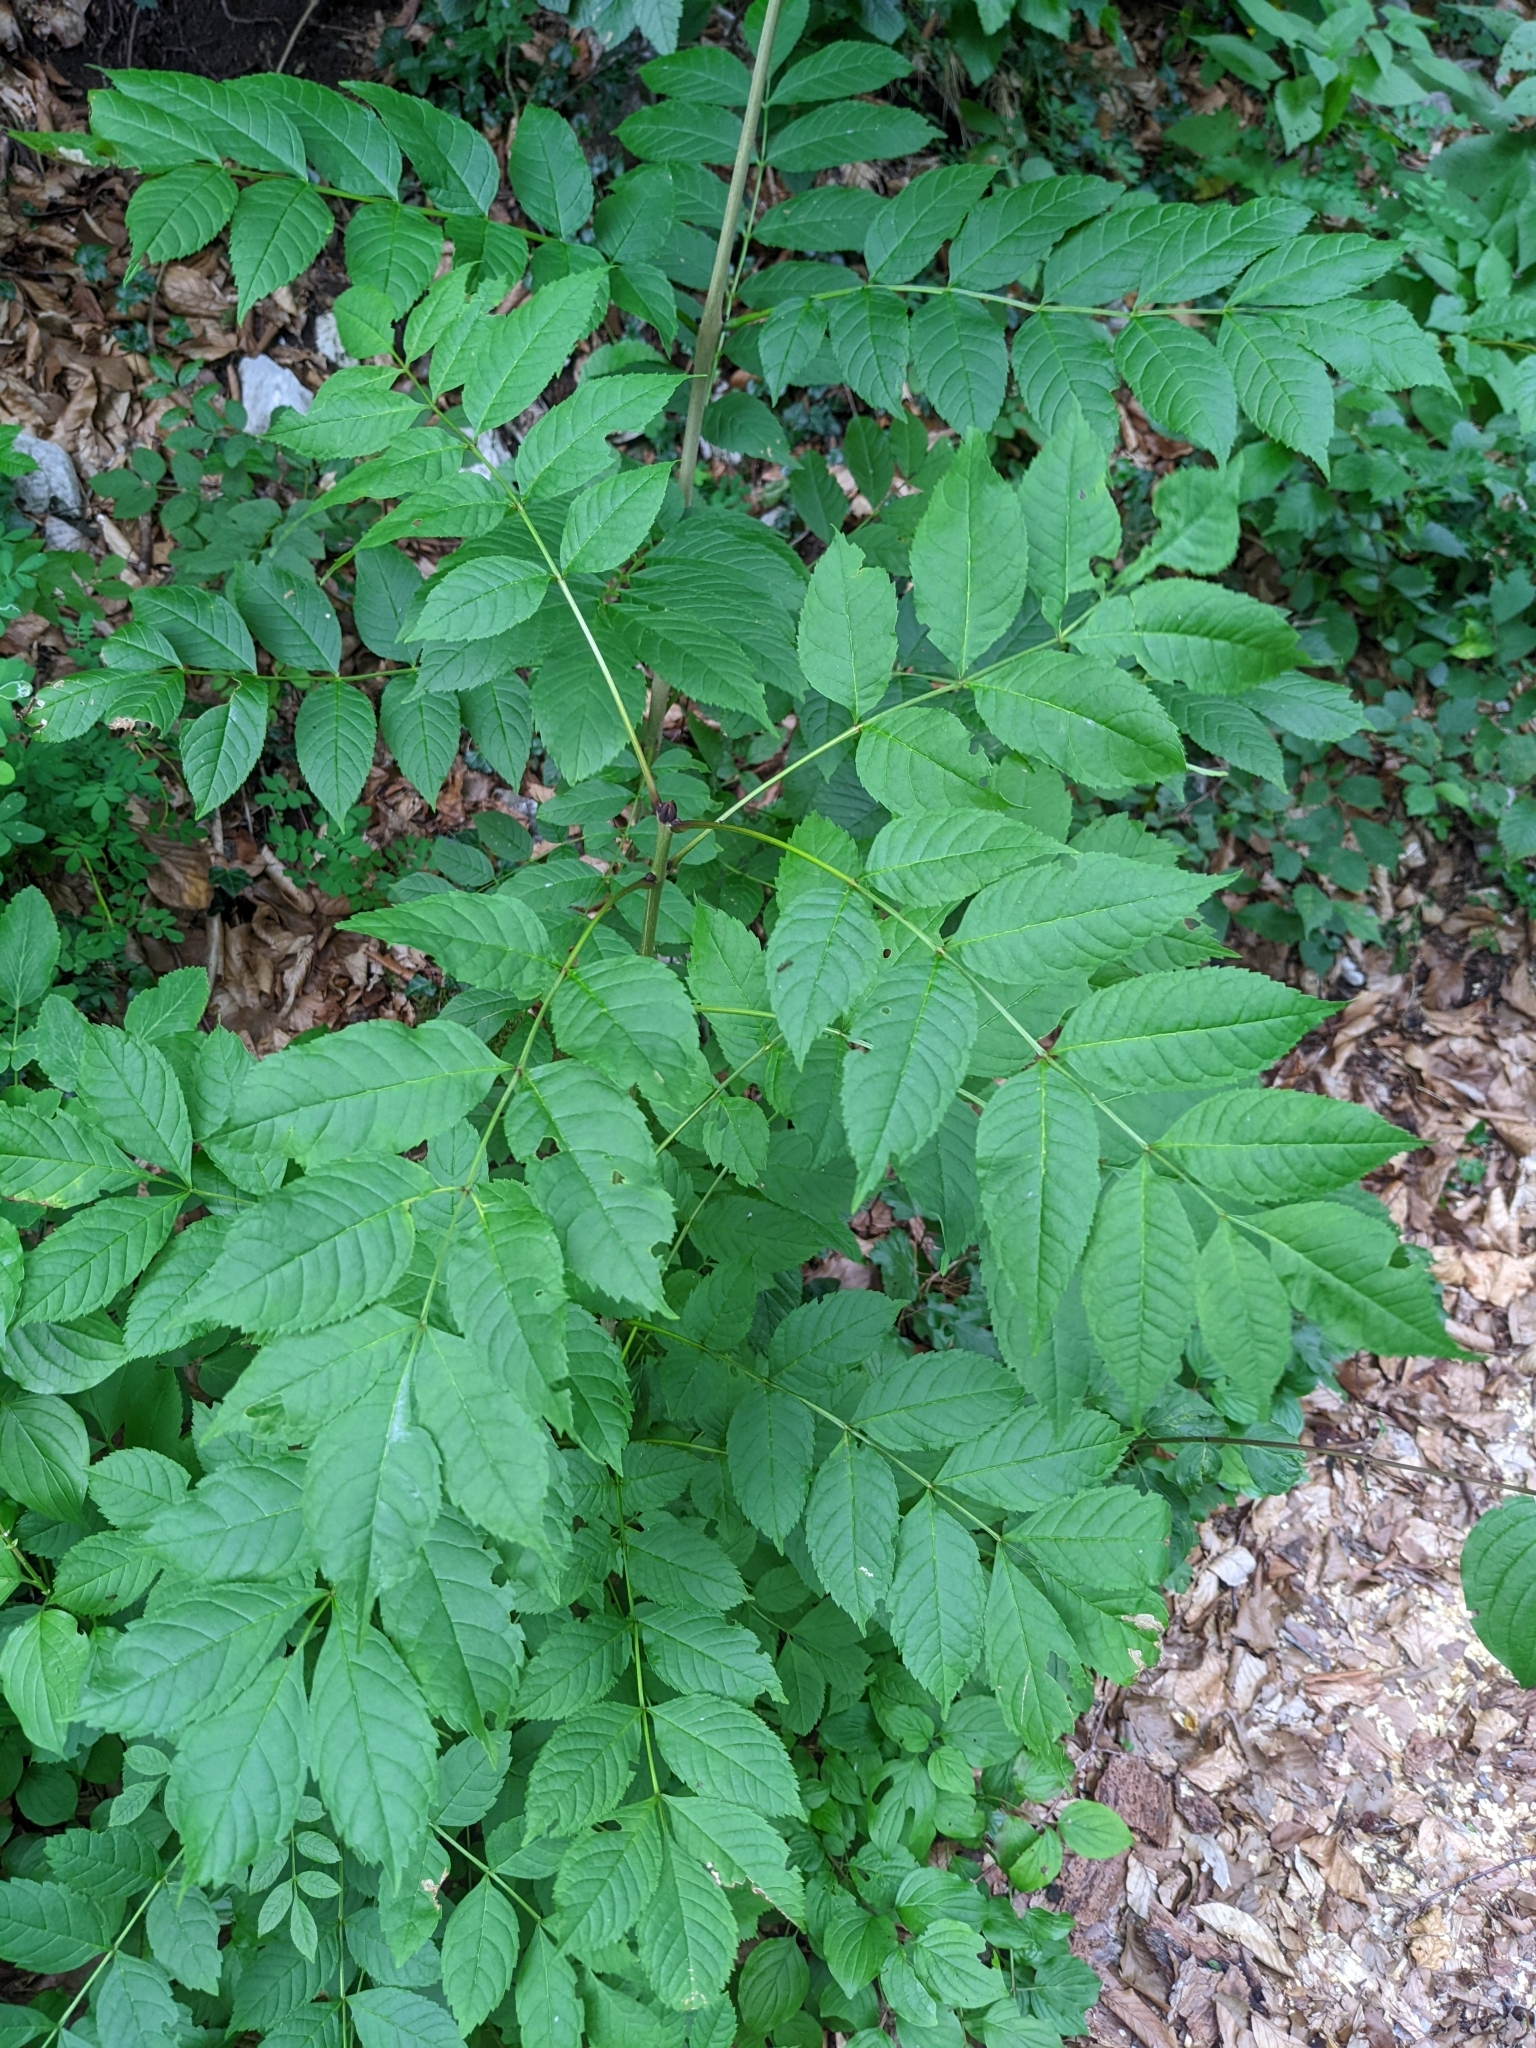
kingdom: Plantae
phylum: Tracheophyta
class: Magnoliopsida
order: Lamiales
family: Oleaceae
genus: Fraxinus
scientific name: Fraxinus excelsior
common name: European ash
